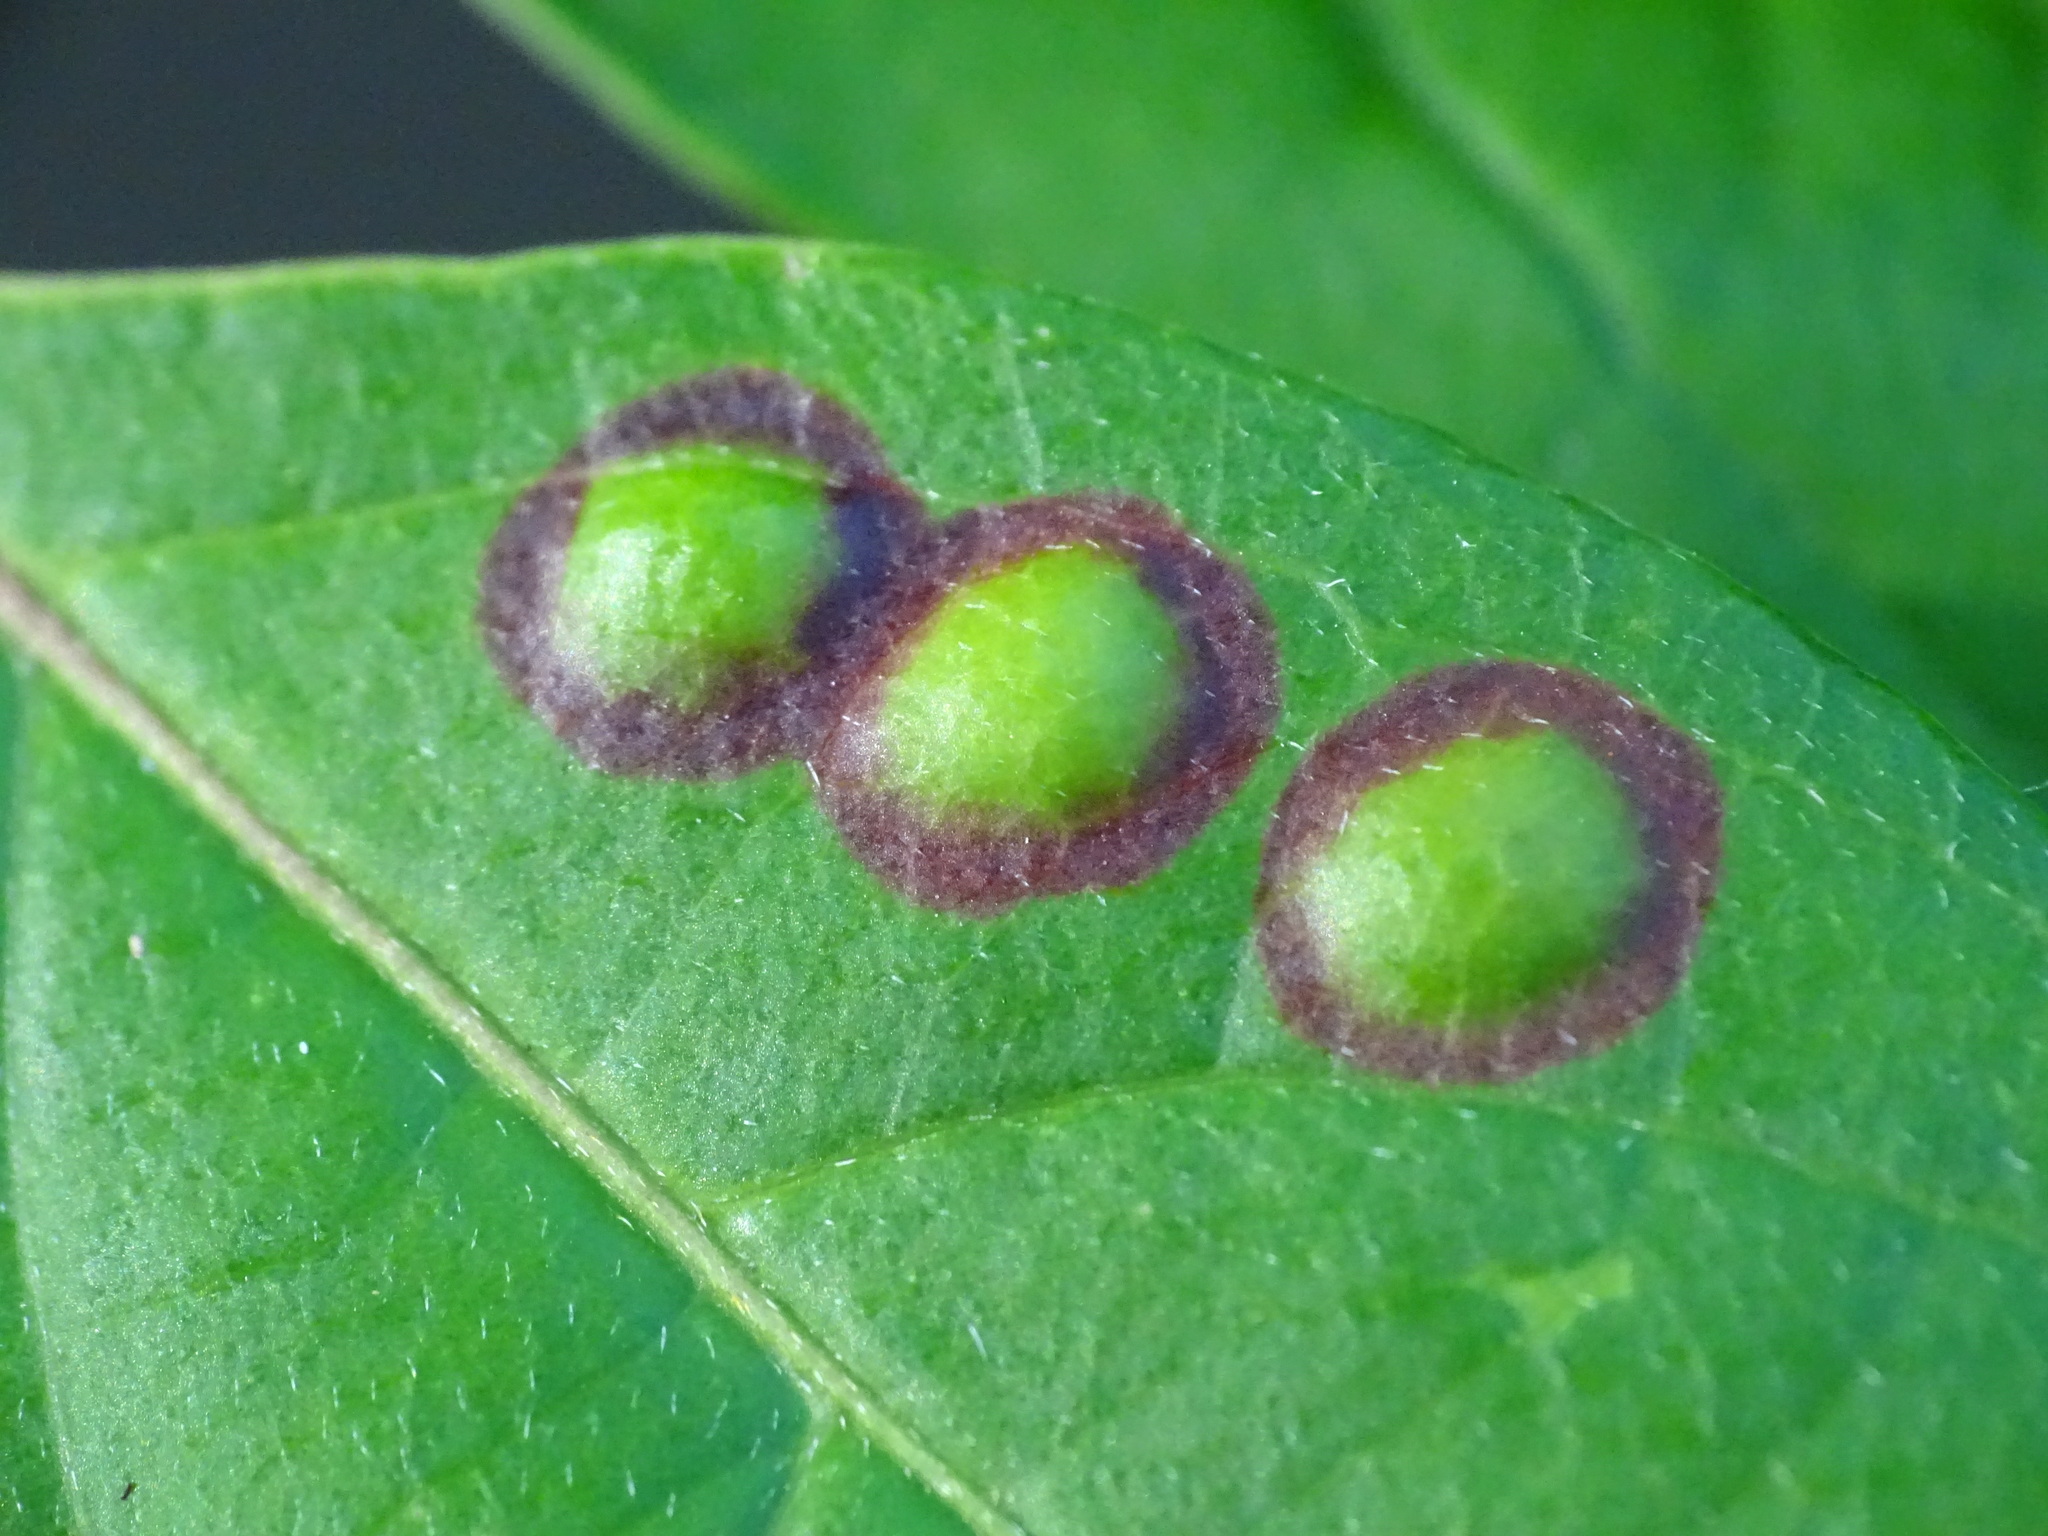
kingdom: Animalia
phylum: Arthropoda
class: Insecta
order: Diptera
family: Cecidomyiidae
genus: Parallelodiplosis
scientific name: Parallelodiplosis subtruncata
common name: Dogwood eyespot gall midge
